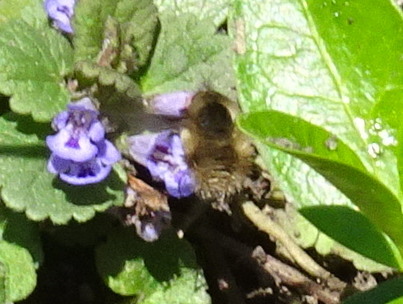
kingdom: Animalia
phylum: Arthropoda
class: Insecta
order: Diptera
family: Bombyliidae
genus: Bombylius
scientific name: Bombylius major
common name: Bee fly
